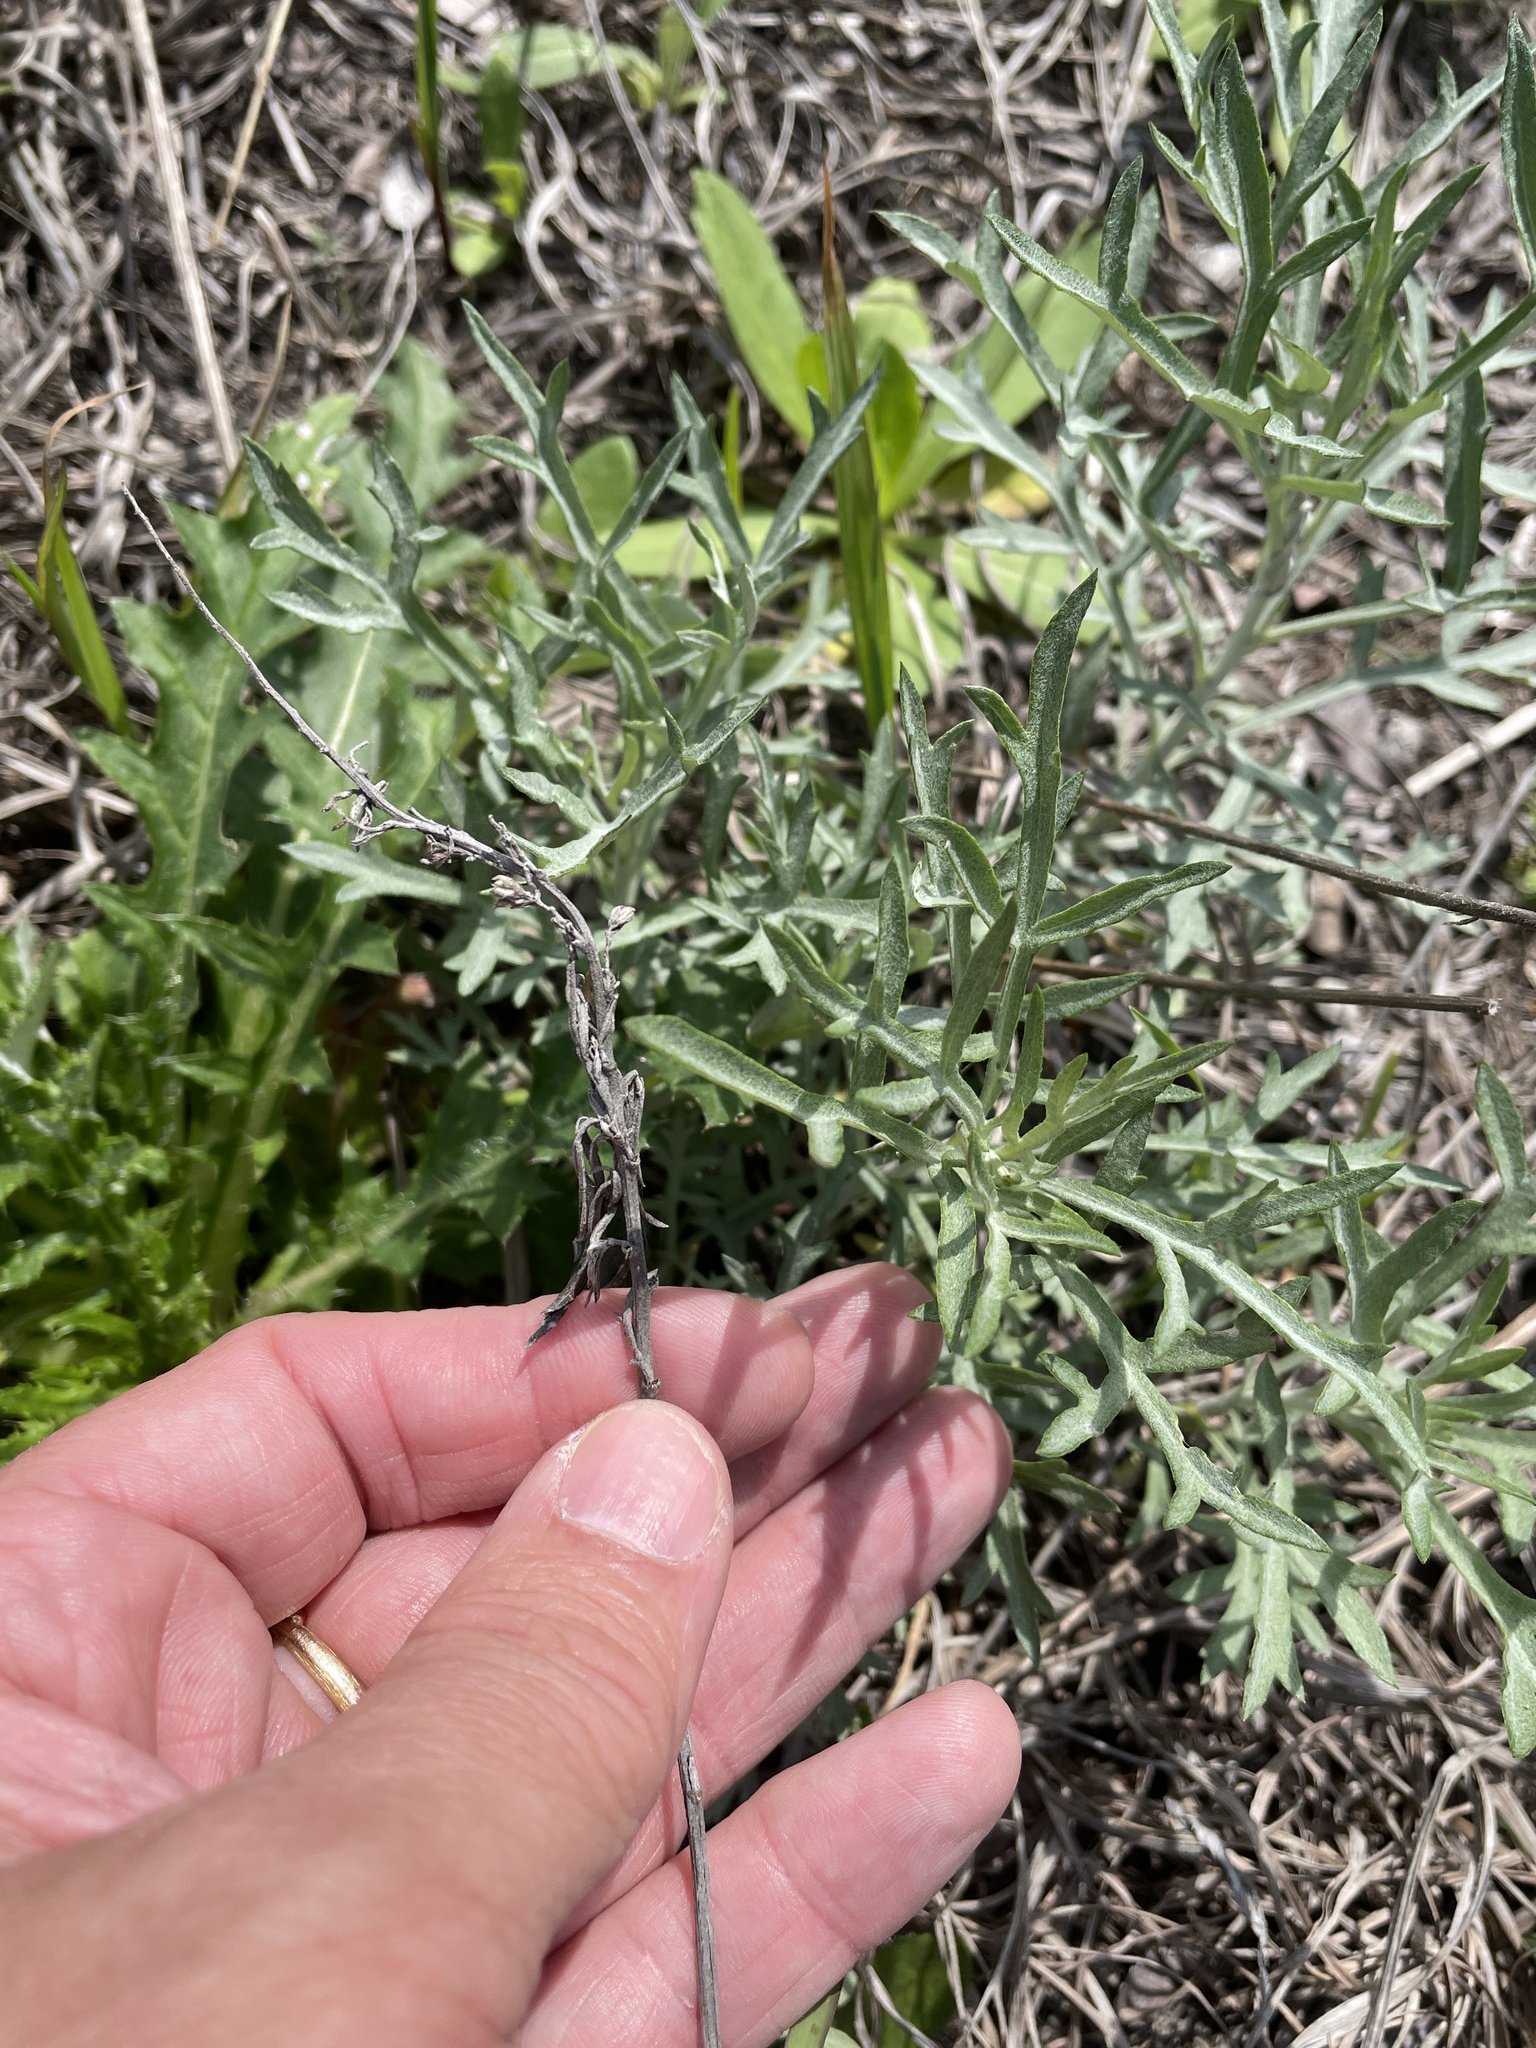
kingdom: Plantae
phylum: Tracheophyta
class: Magnoliopsida
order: Asterales
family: Asteraceae
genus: Artemisia
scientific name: Artemisia ludoviciana
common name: Western mugwort
